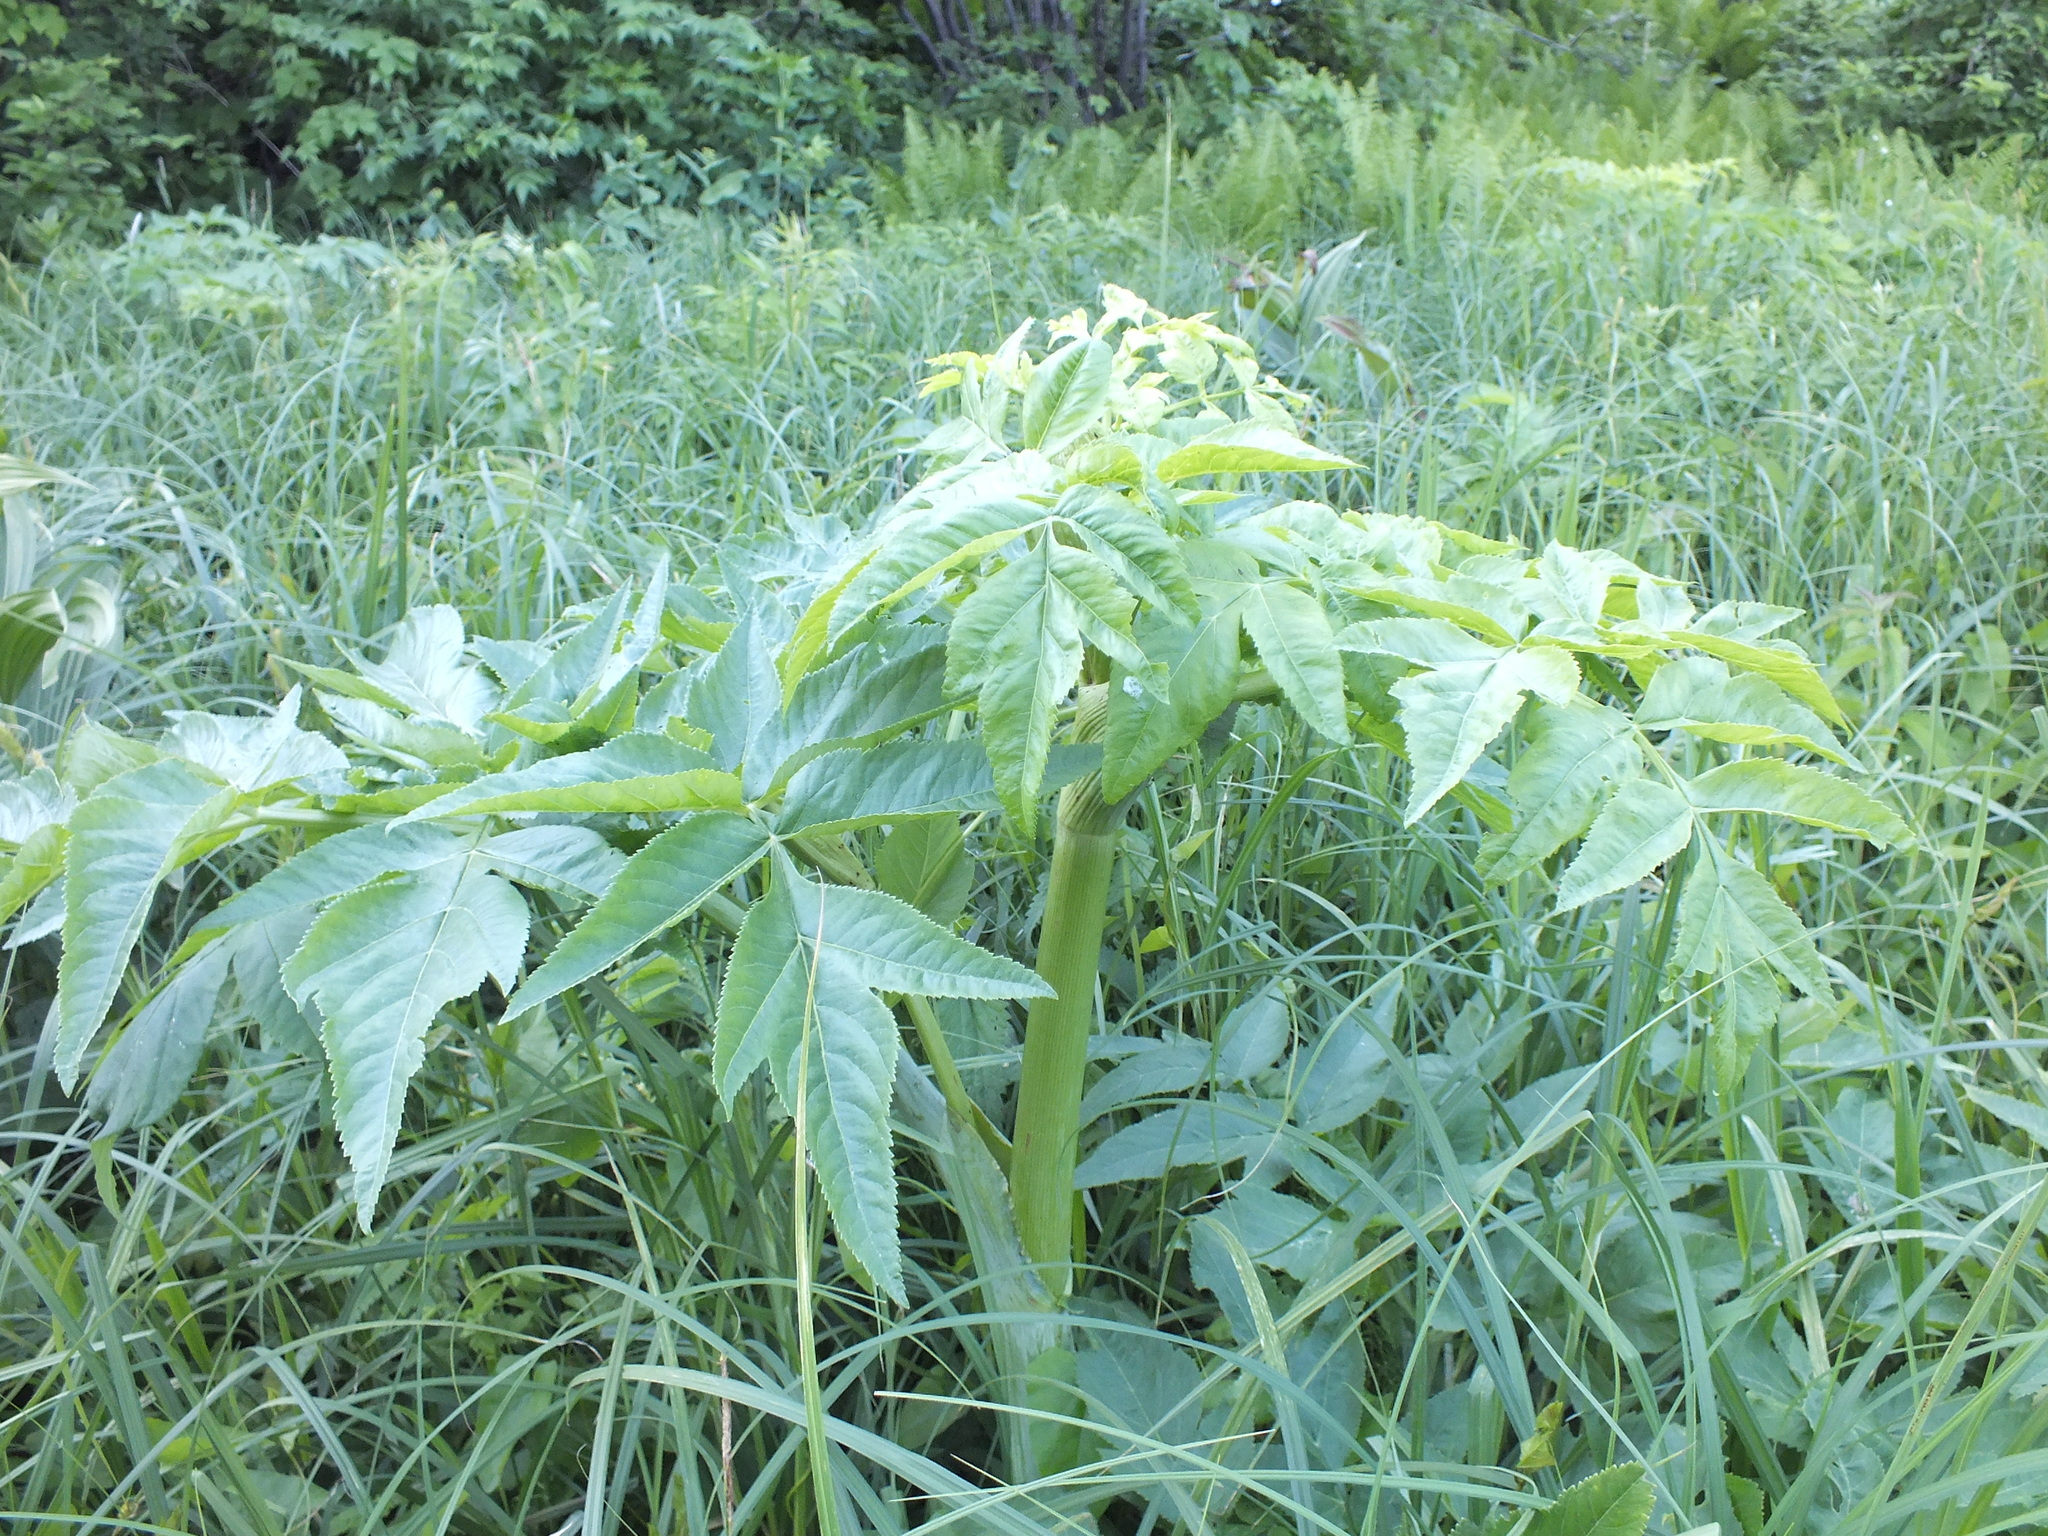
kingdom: Plantae
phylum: Tracheophyta
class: Magnoliopsida
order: Apiales
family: Apiaceae
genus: Angelica
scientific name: Angelica decurrens
